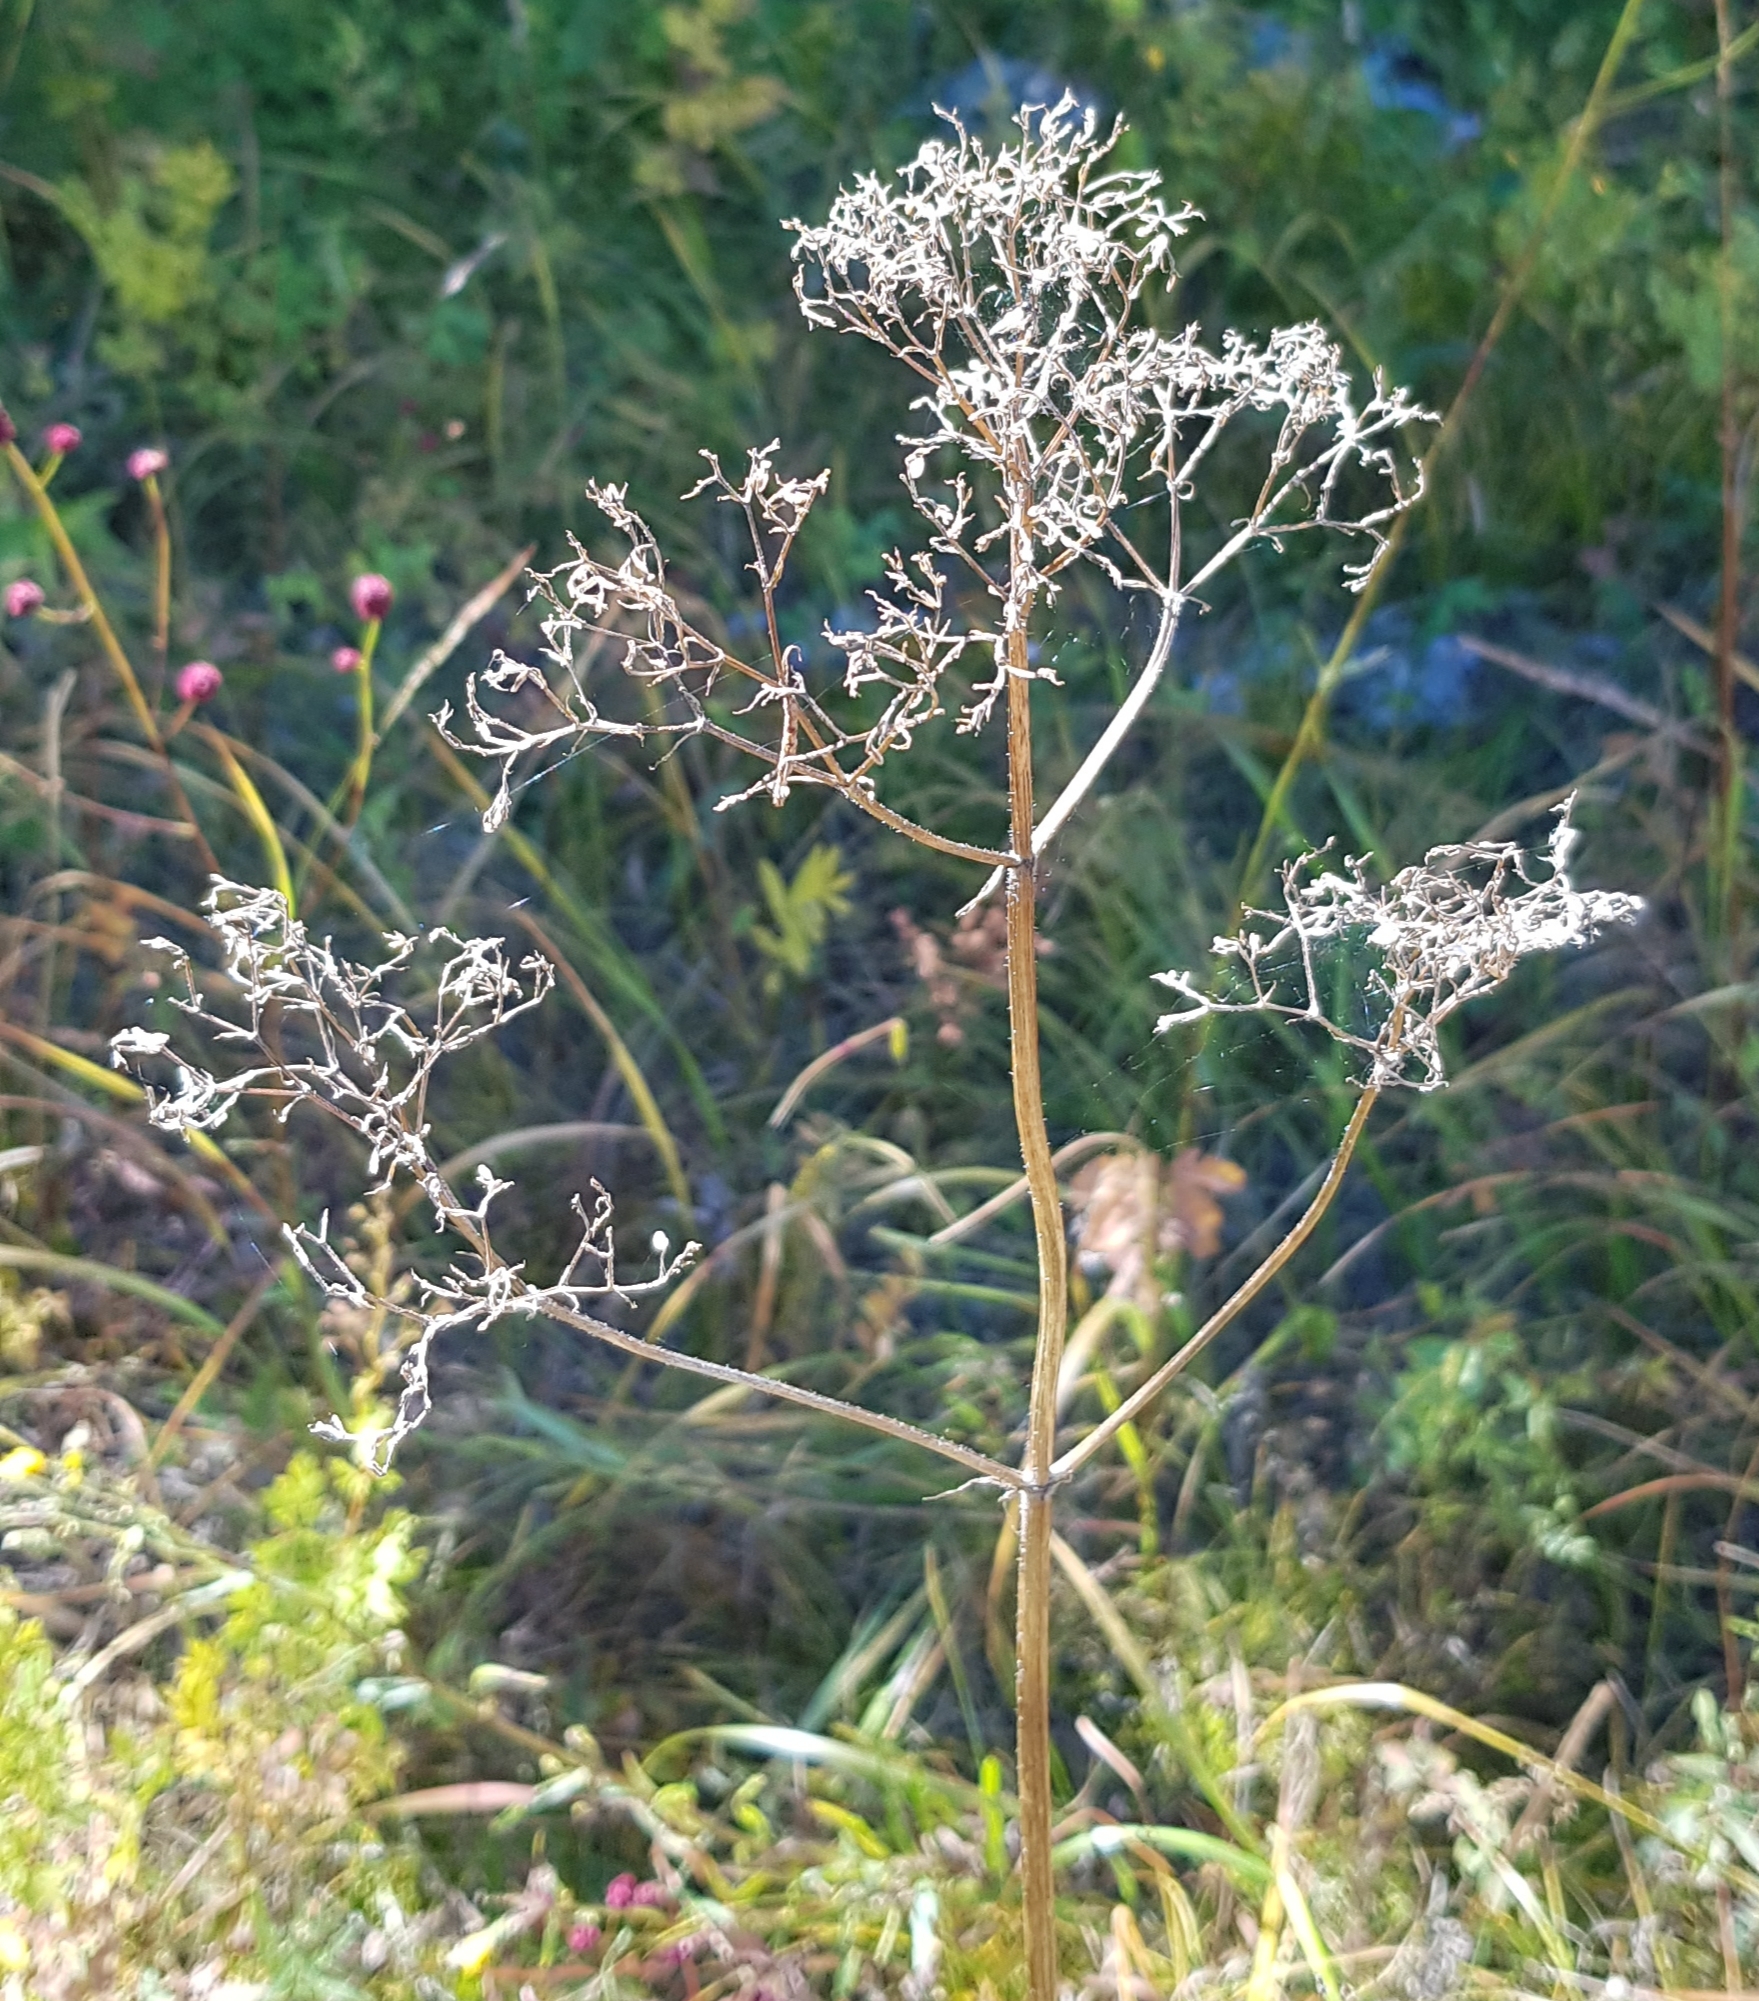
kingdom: Plantae
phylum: Tracheophyta
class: Magnoliopsida
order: Dipsacales
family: Caprifoliaceae
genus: Valeriana
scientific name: Valeriana officinalis
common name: Common valerian
